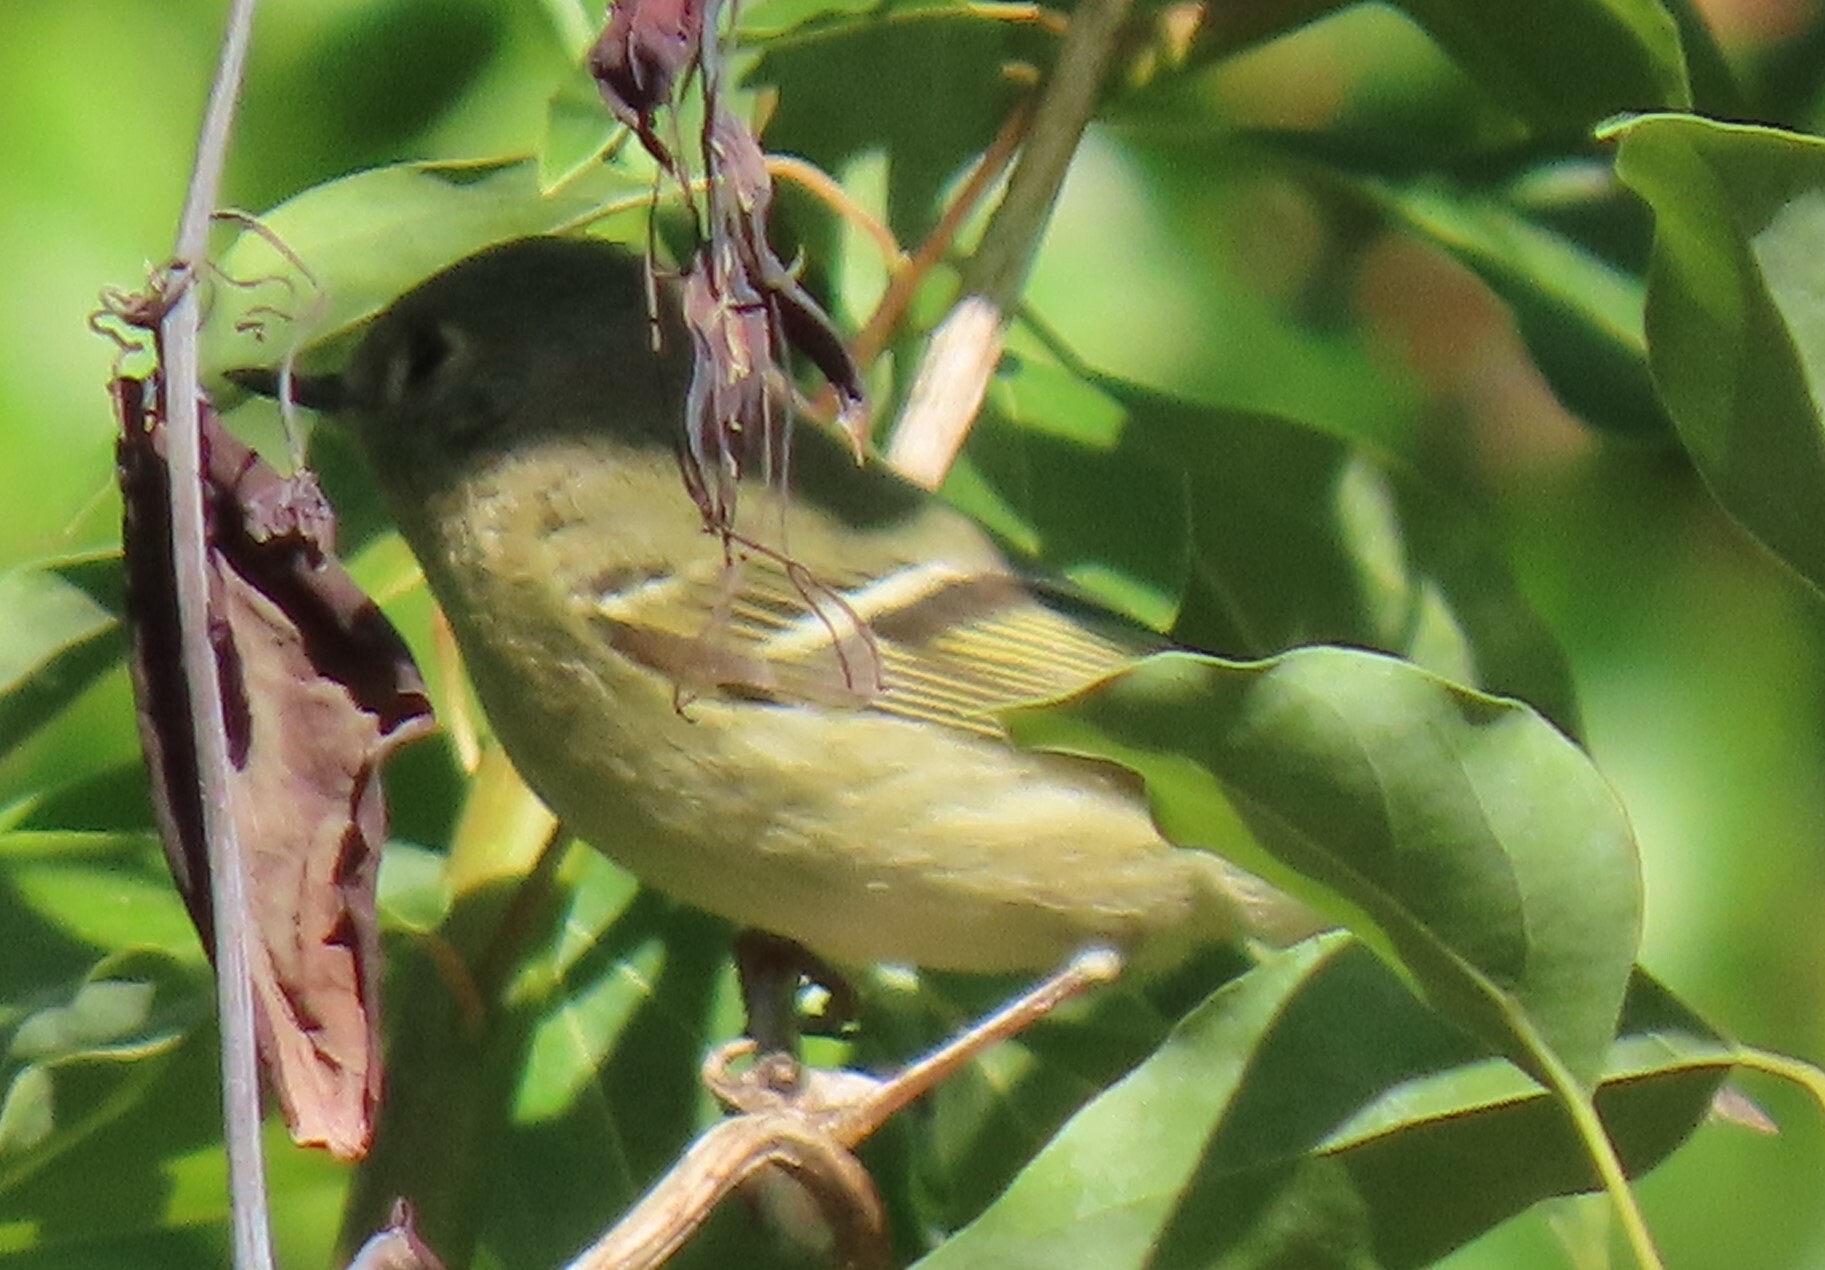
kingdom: Animalia
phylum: Chordata
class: Aves
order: Passeriformes
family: Regulidae
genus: Regulus
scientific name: Regulus calendula
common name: Ruby-crowned kinglet
